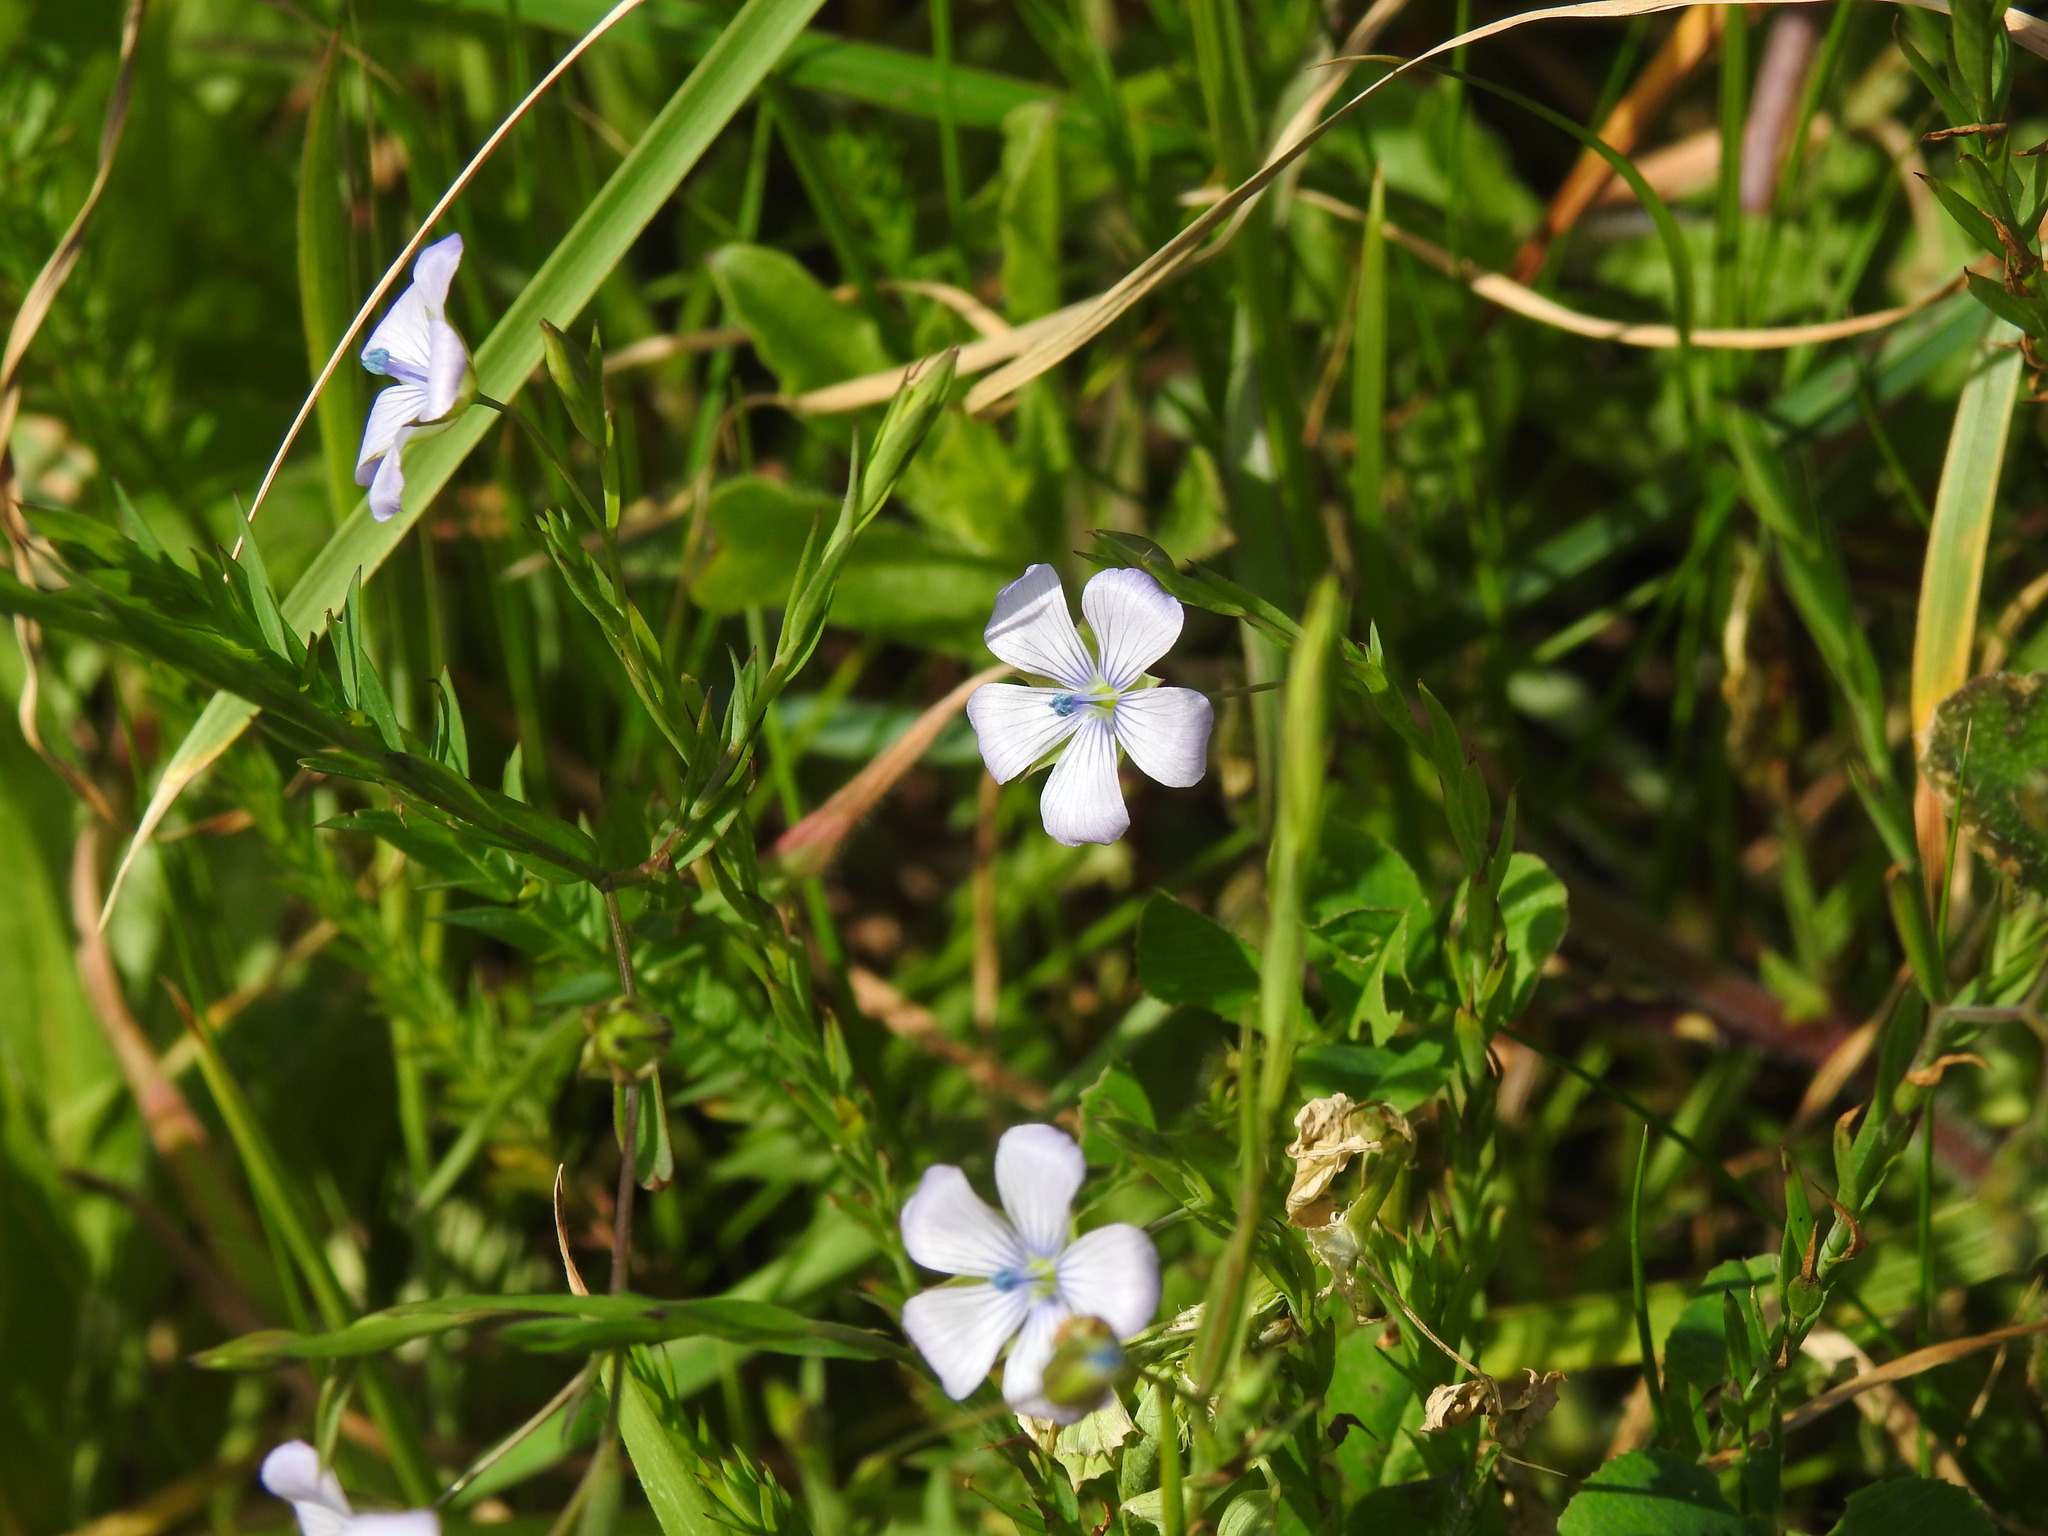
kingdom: Plantae
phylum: Tracheophyta
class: Magnoliopsida
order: Malpighiales
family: Linaceae
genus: Linum
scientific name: Linum bienne
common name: Pale flax
